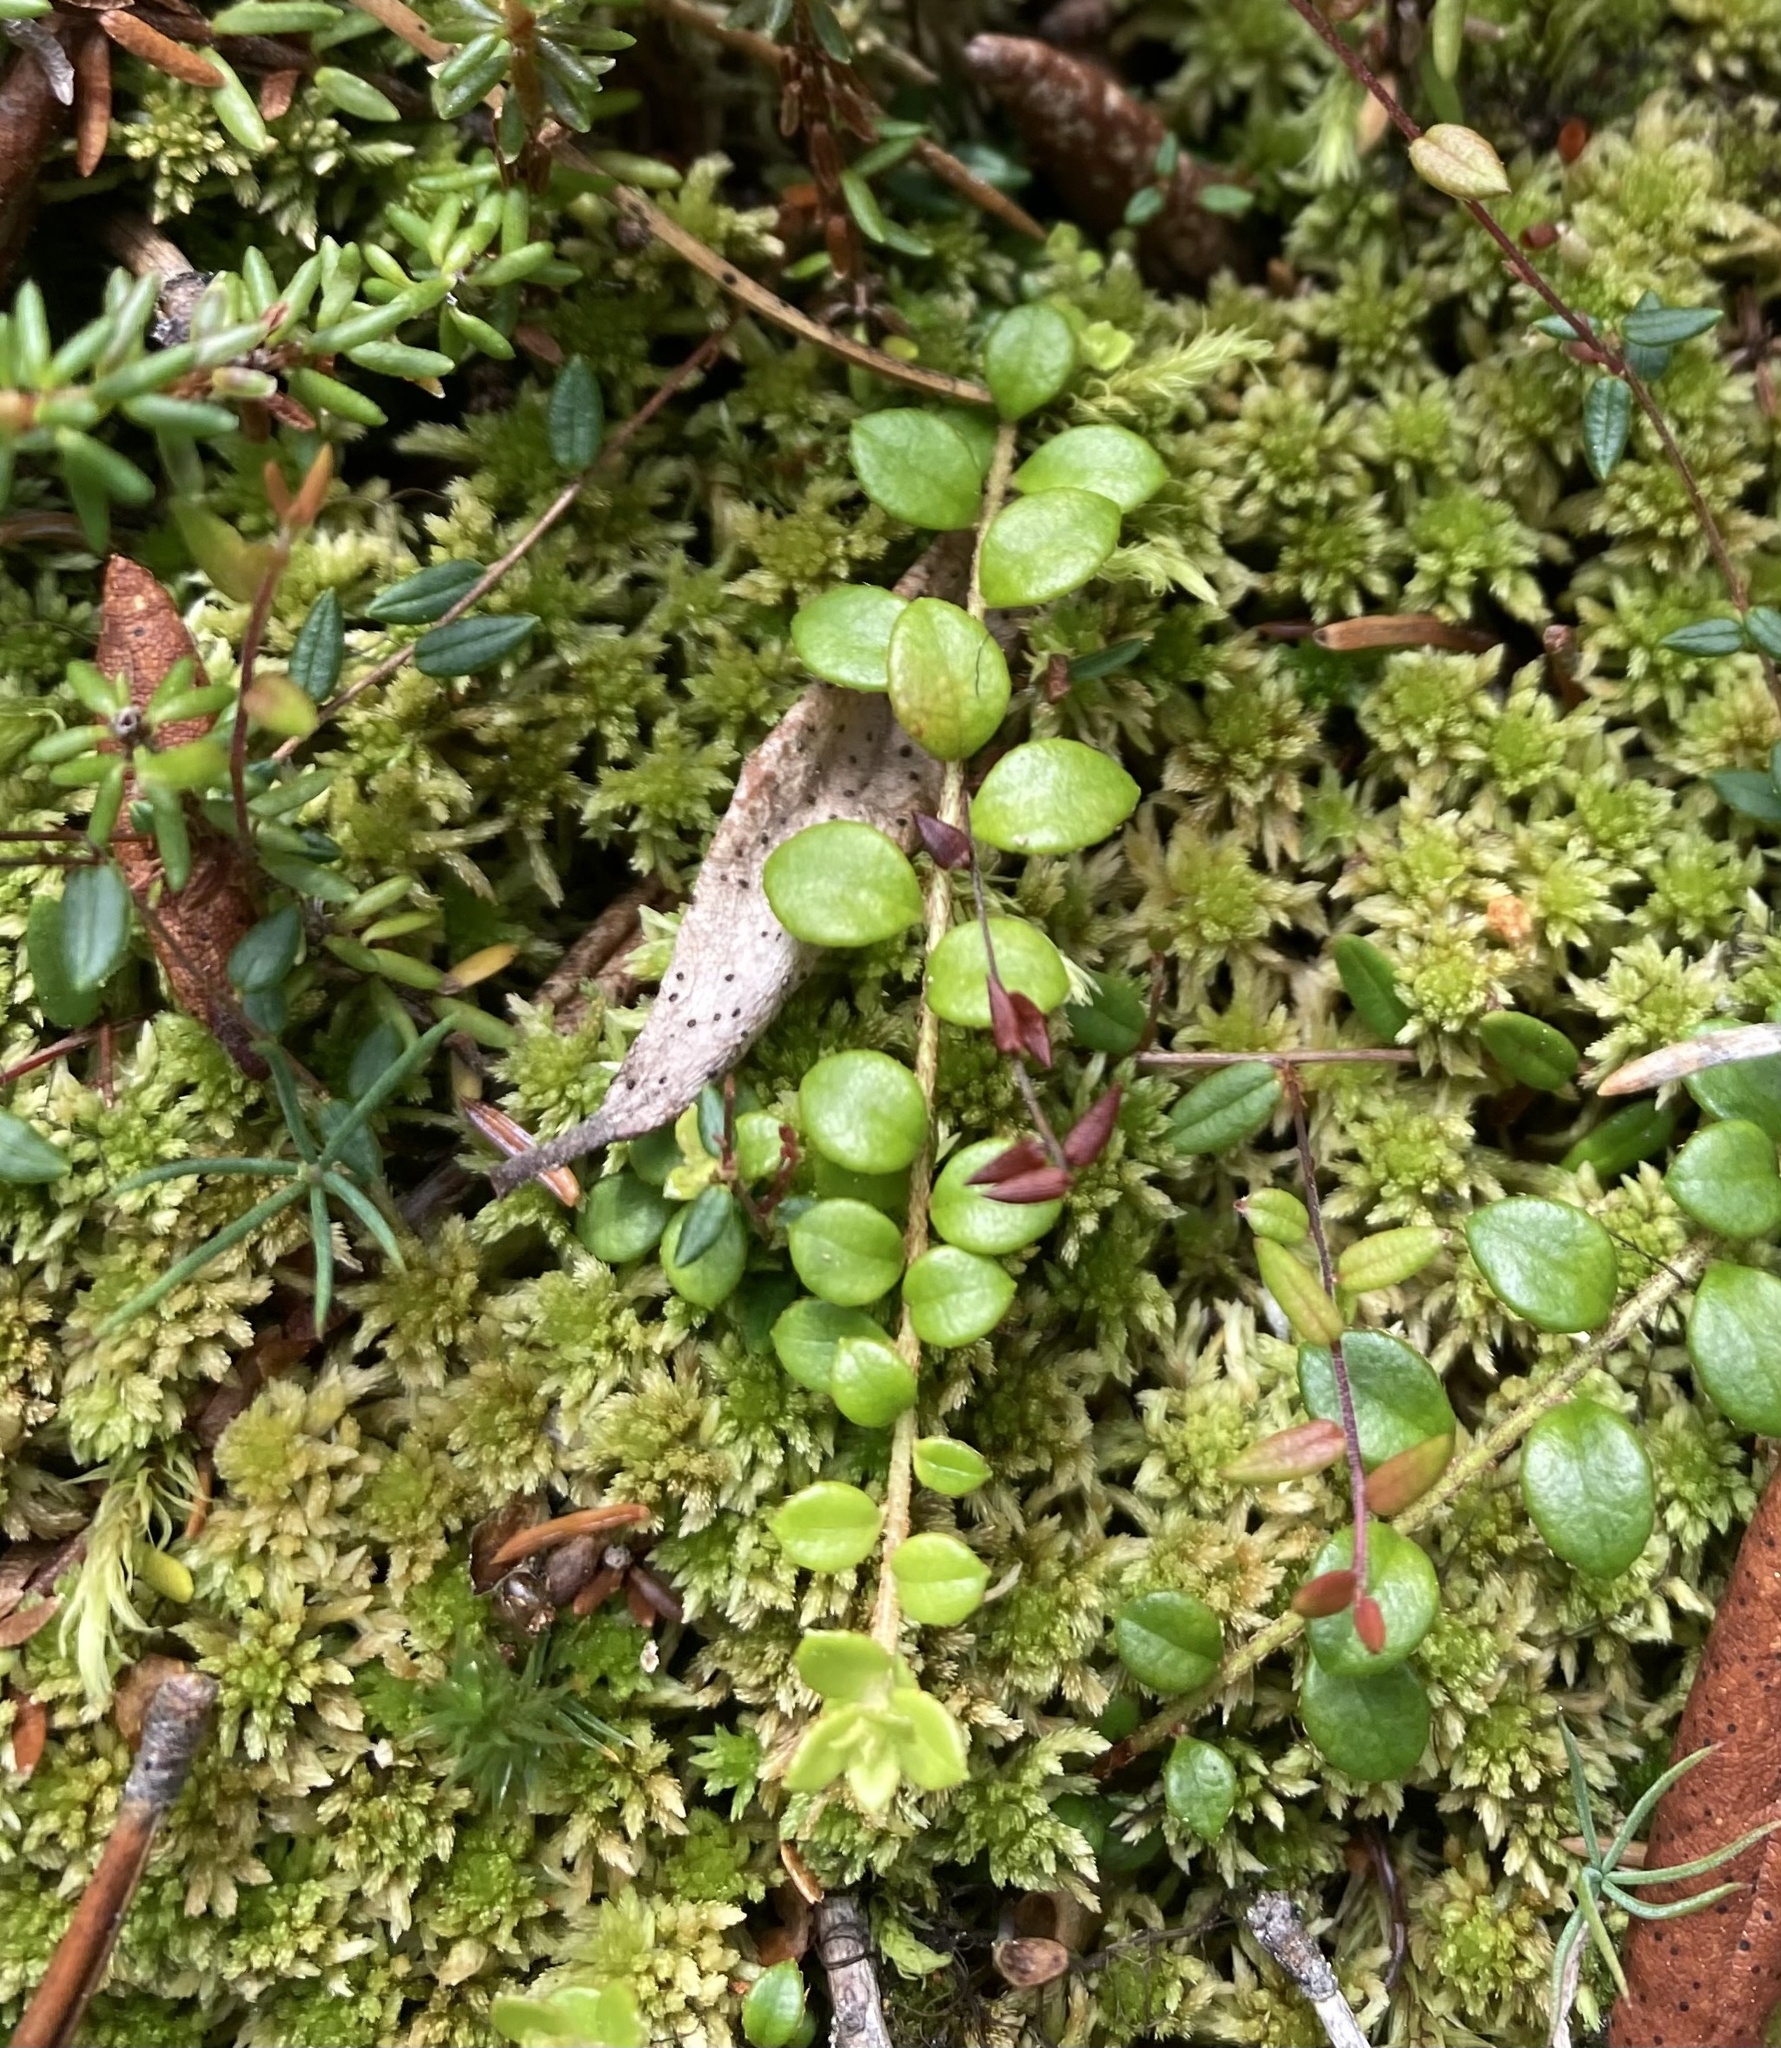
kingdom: Plantae
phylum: Tracheophyta
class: Magnoliopsida
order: Ericales
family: Ericaceae
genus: Gaultheria
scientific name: Gaultheria hispidula
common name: Cancer wintergreen
